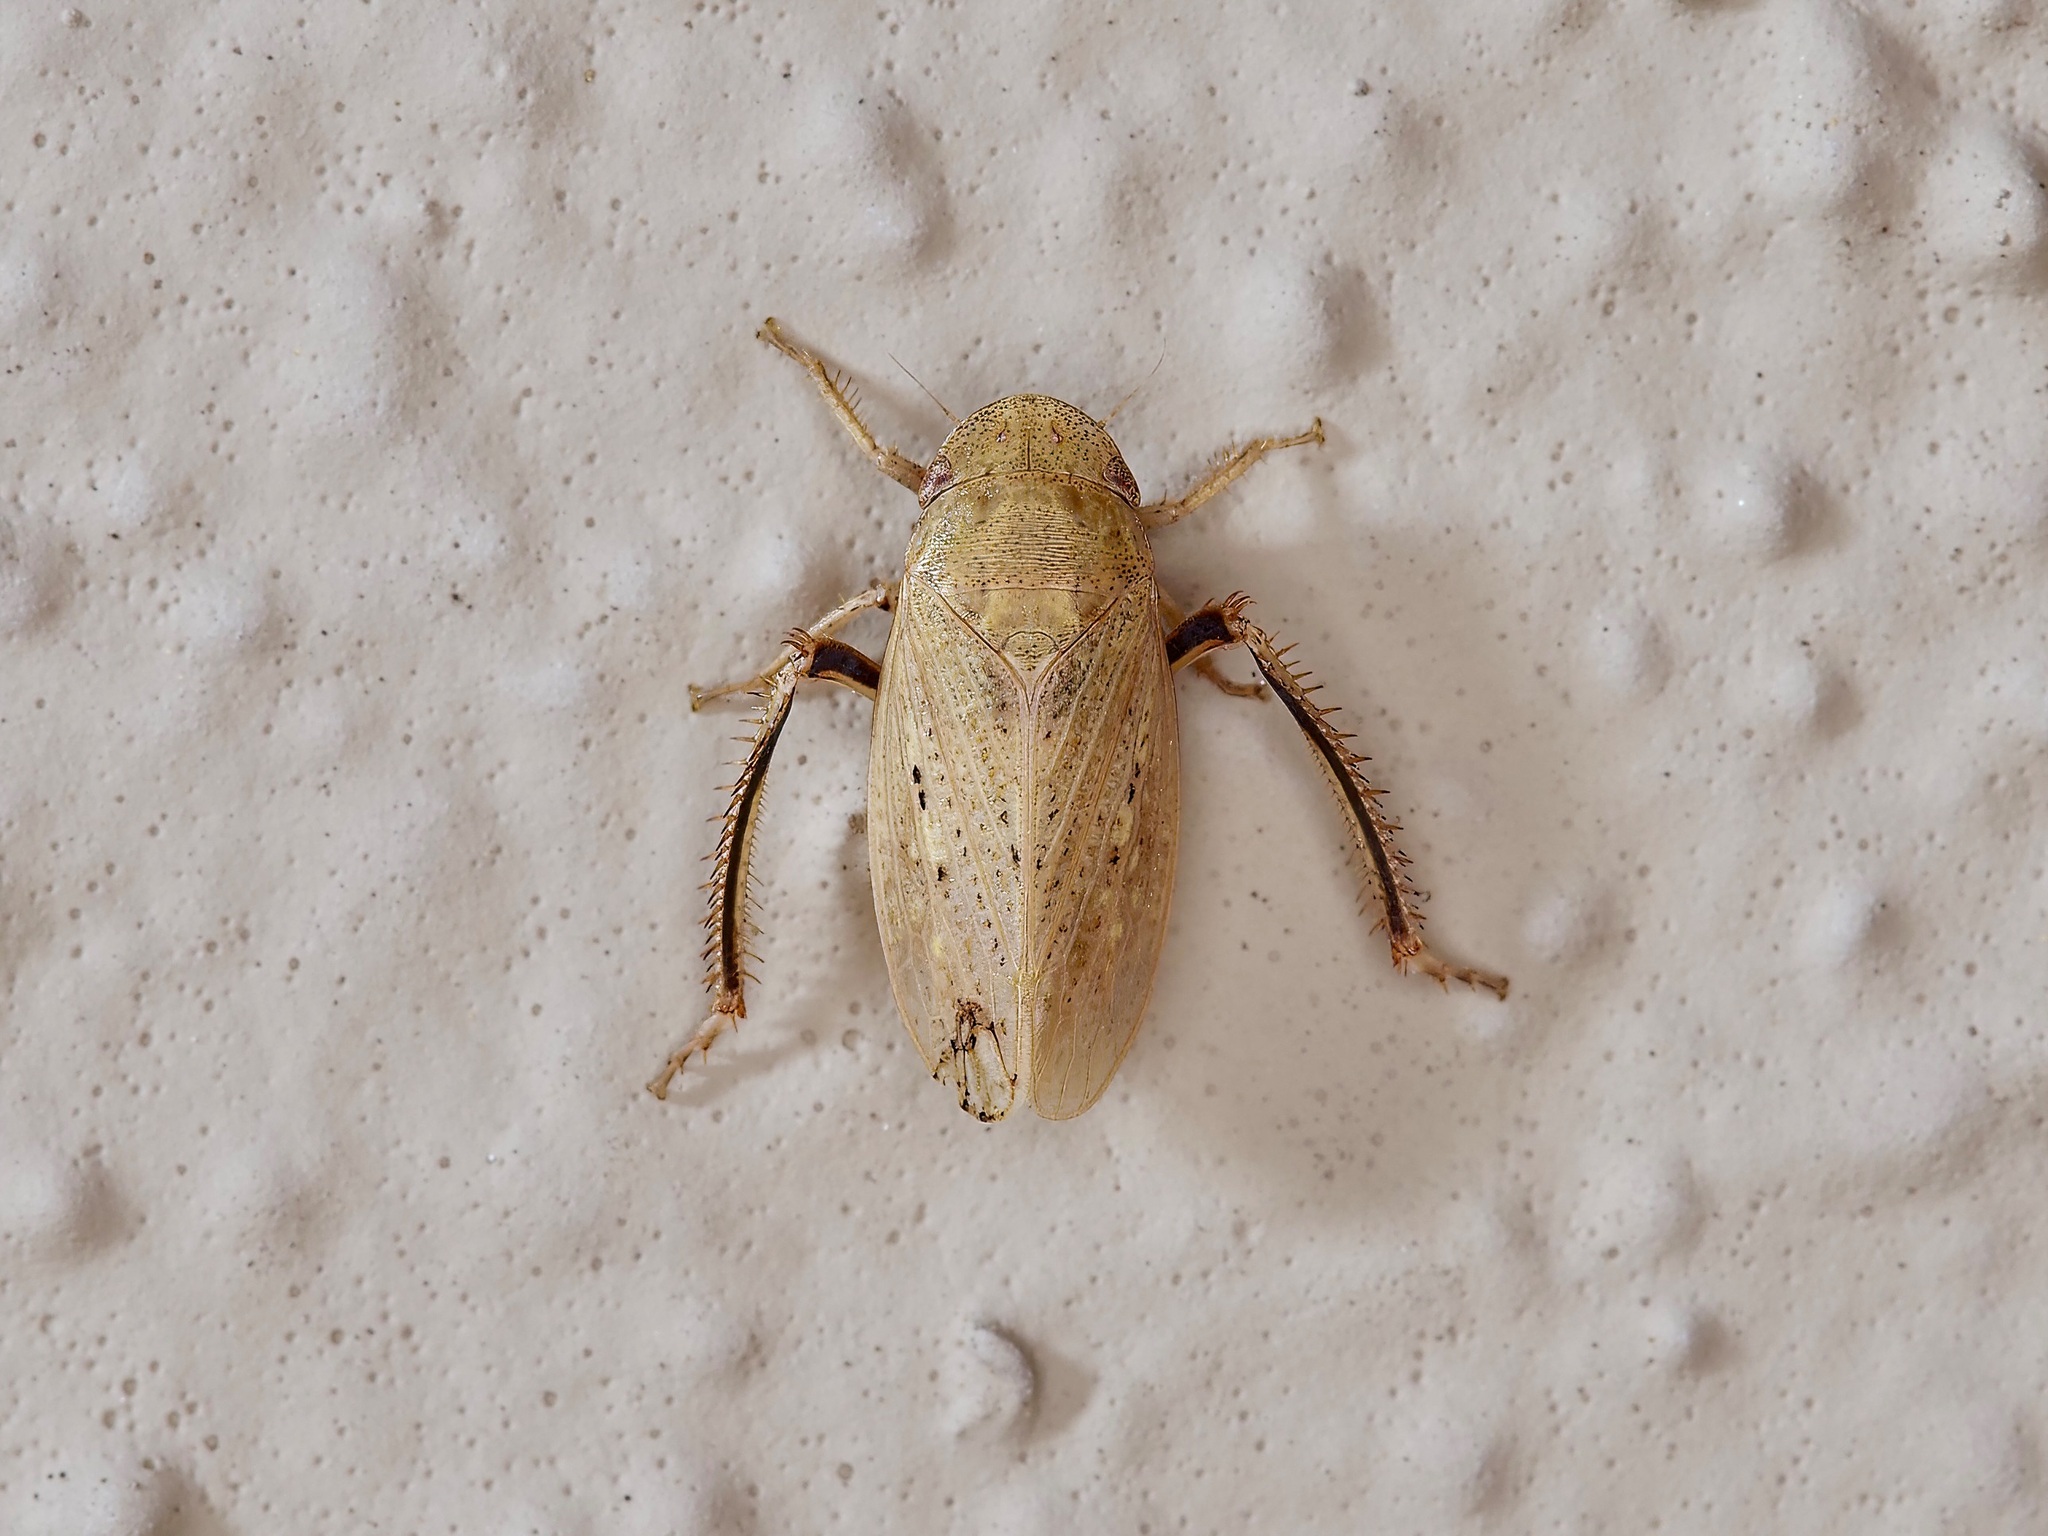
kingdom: Animalia
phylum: Arthropoda
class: Insecta
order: Hemiptera
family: Cicadellidae
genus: Negosiana
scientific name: Negosiana dualis
